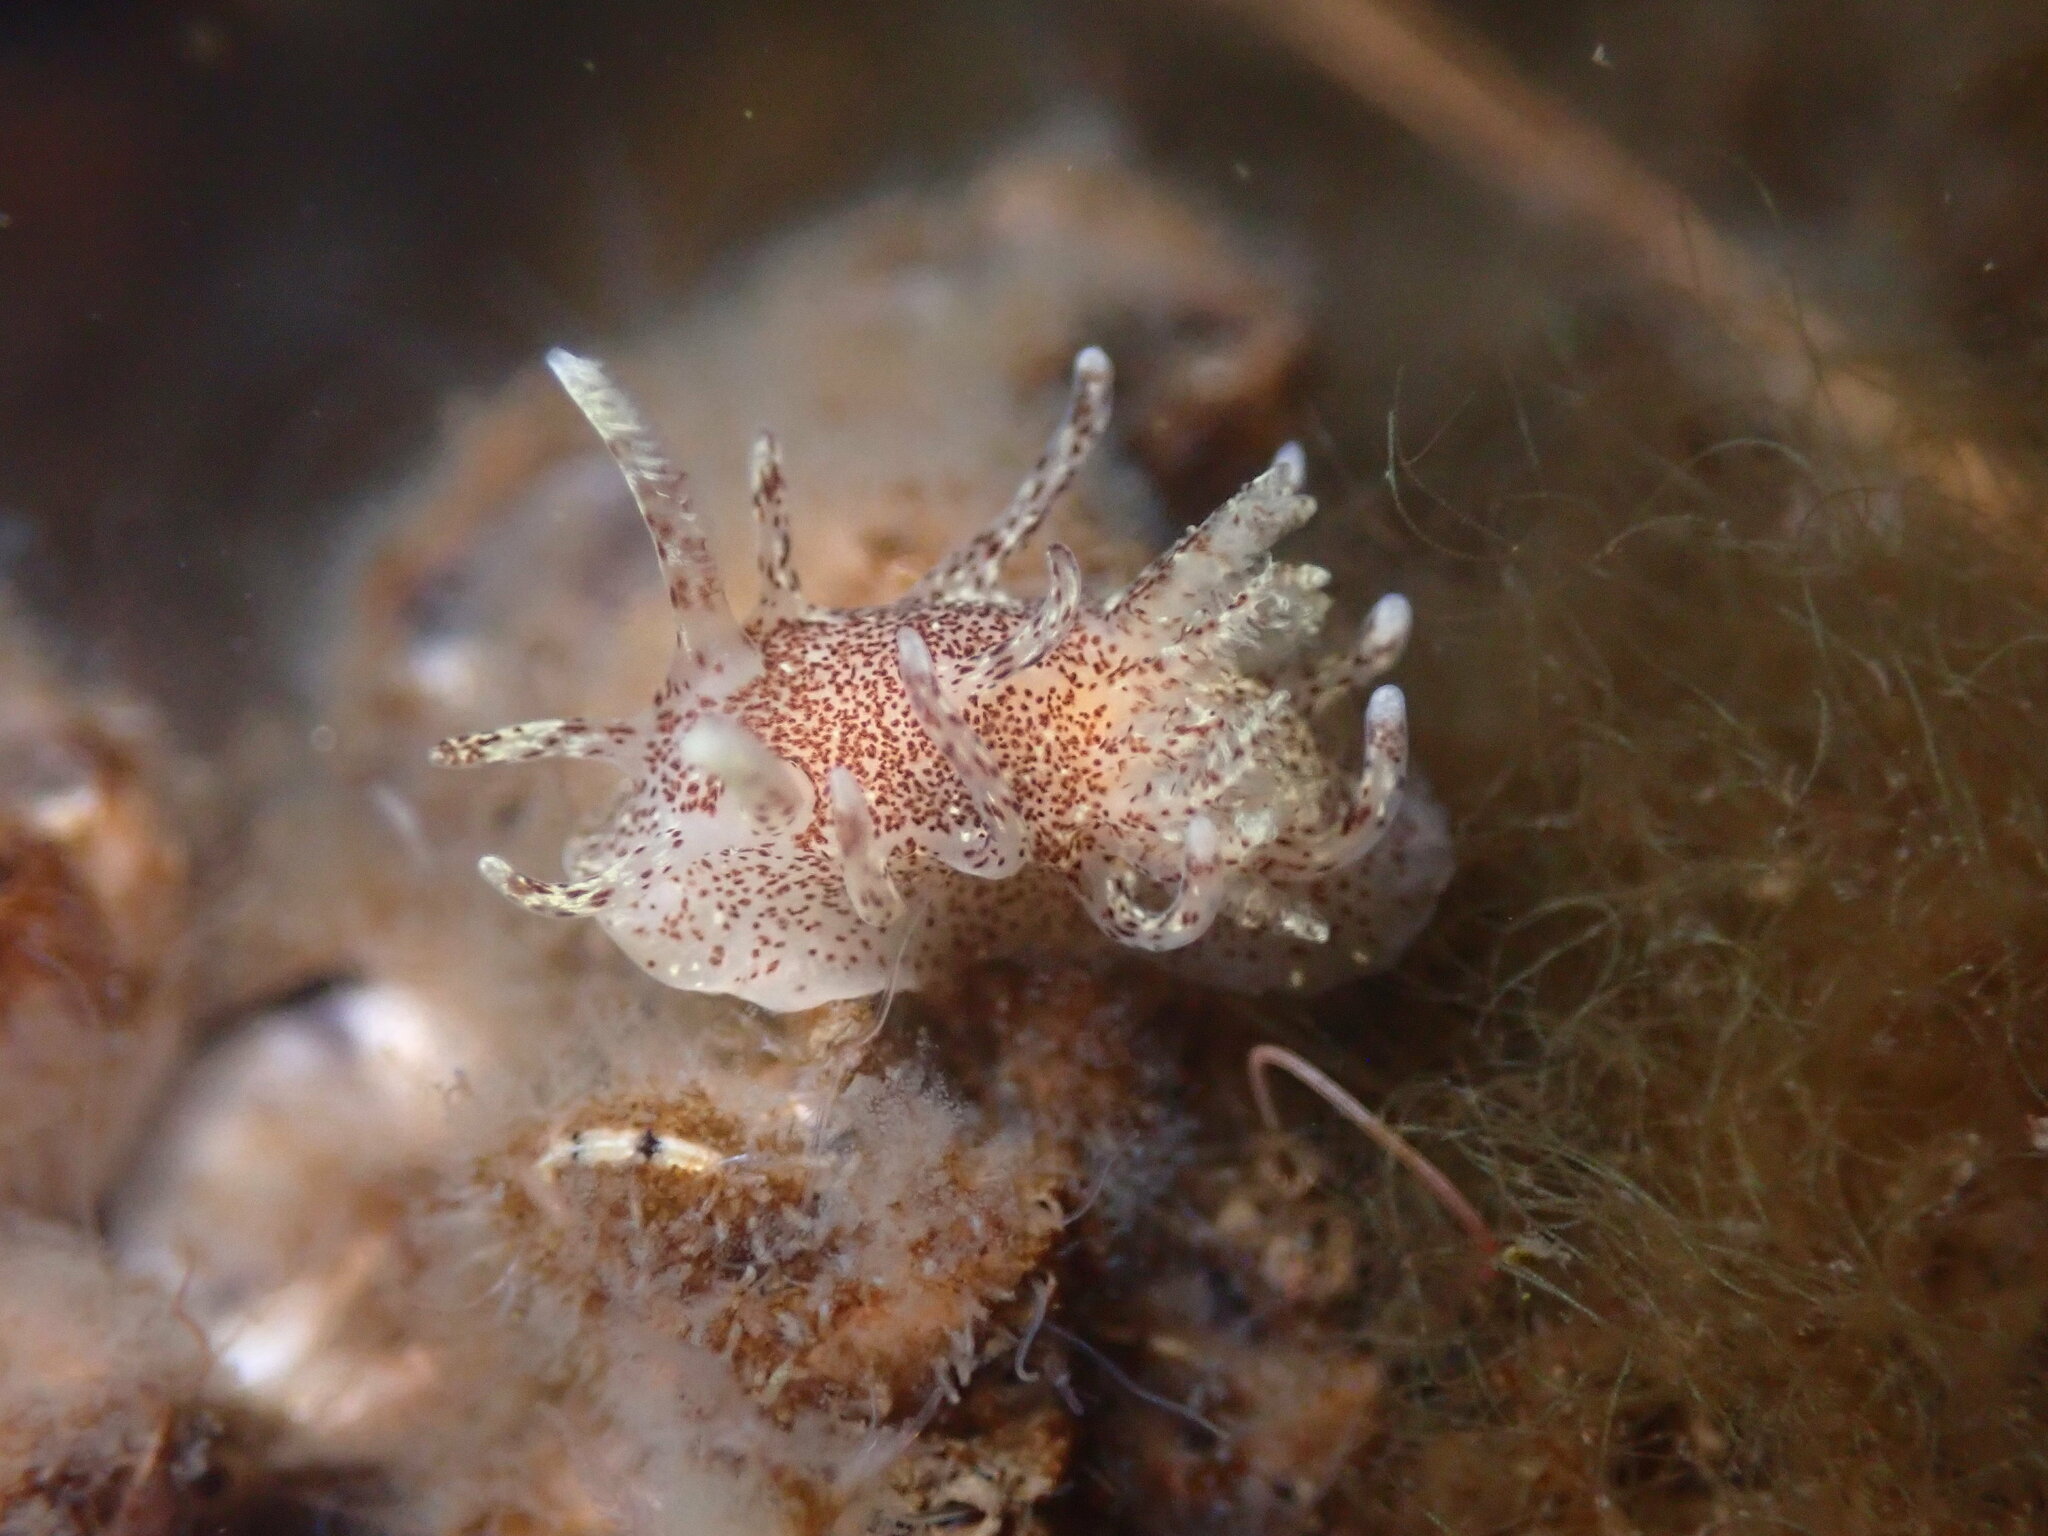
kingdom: Animalia
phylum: Mollusca
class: Gastropoda
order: Nudibranchia
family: Goniodorididae
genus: Okenia
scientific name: Okenia
